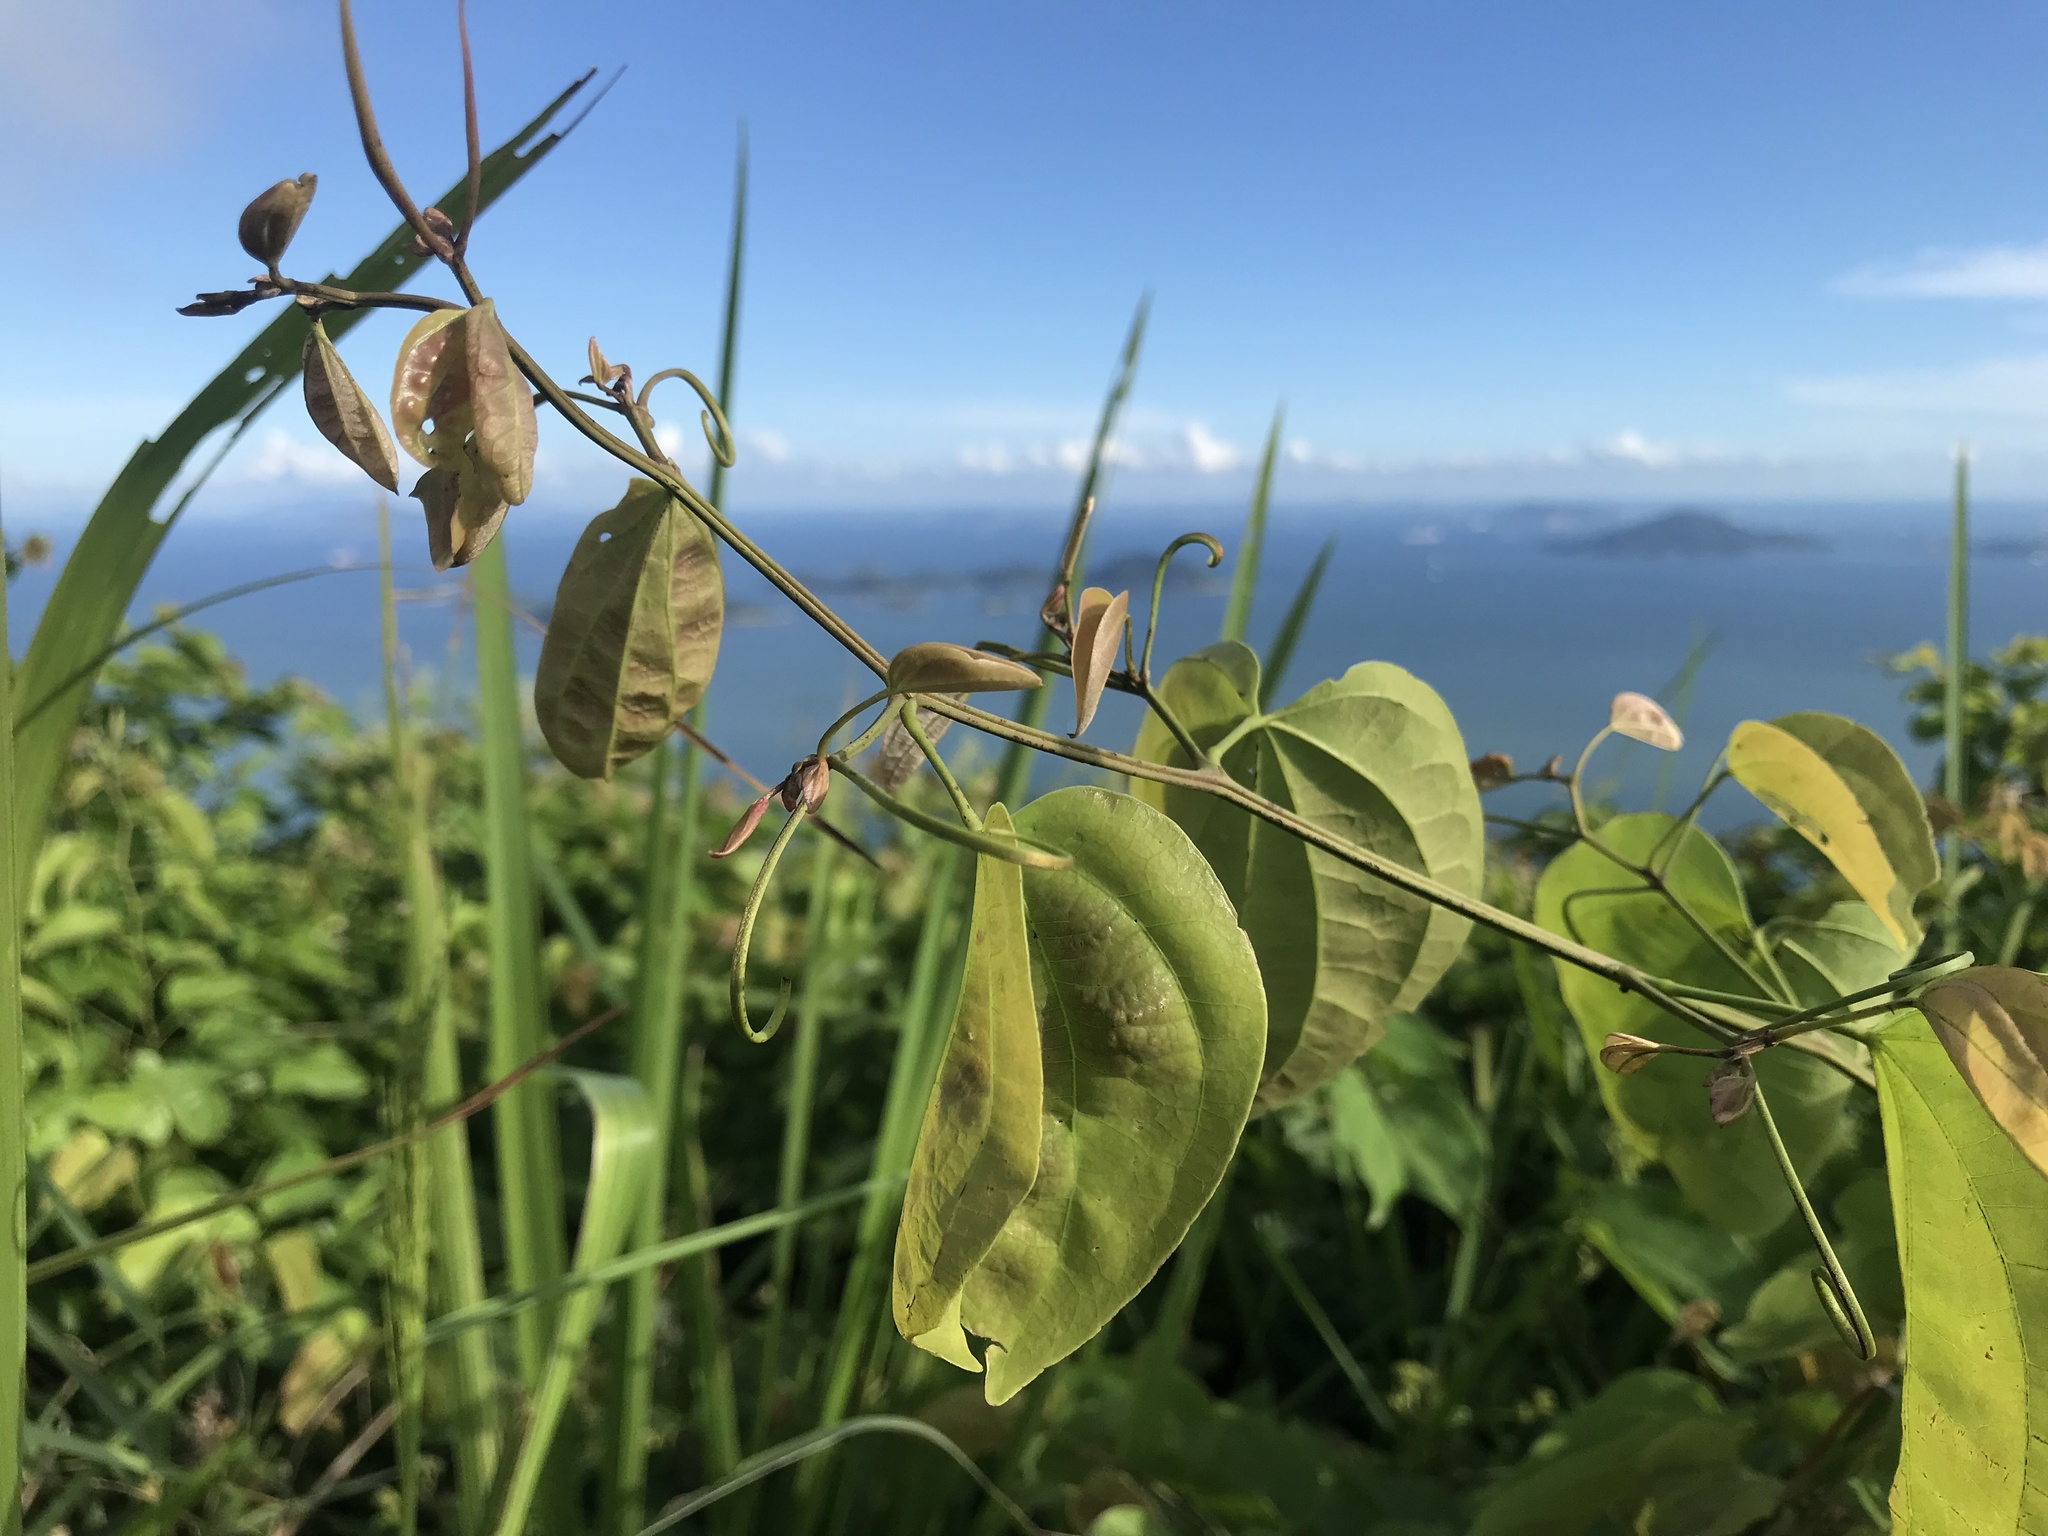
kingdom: Plantae
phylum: Tracheophyta
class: Magnoliopsida
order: Fabales
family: Fabaceae
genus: Phanera
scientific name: Phanera championii
